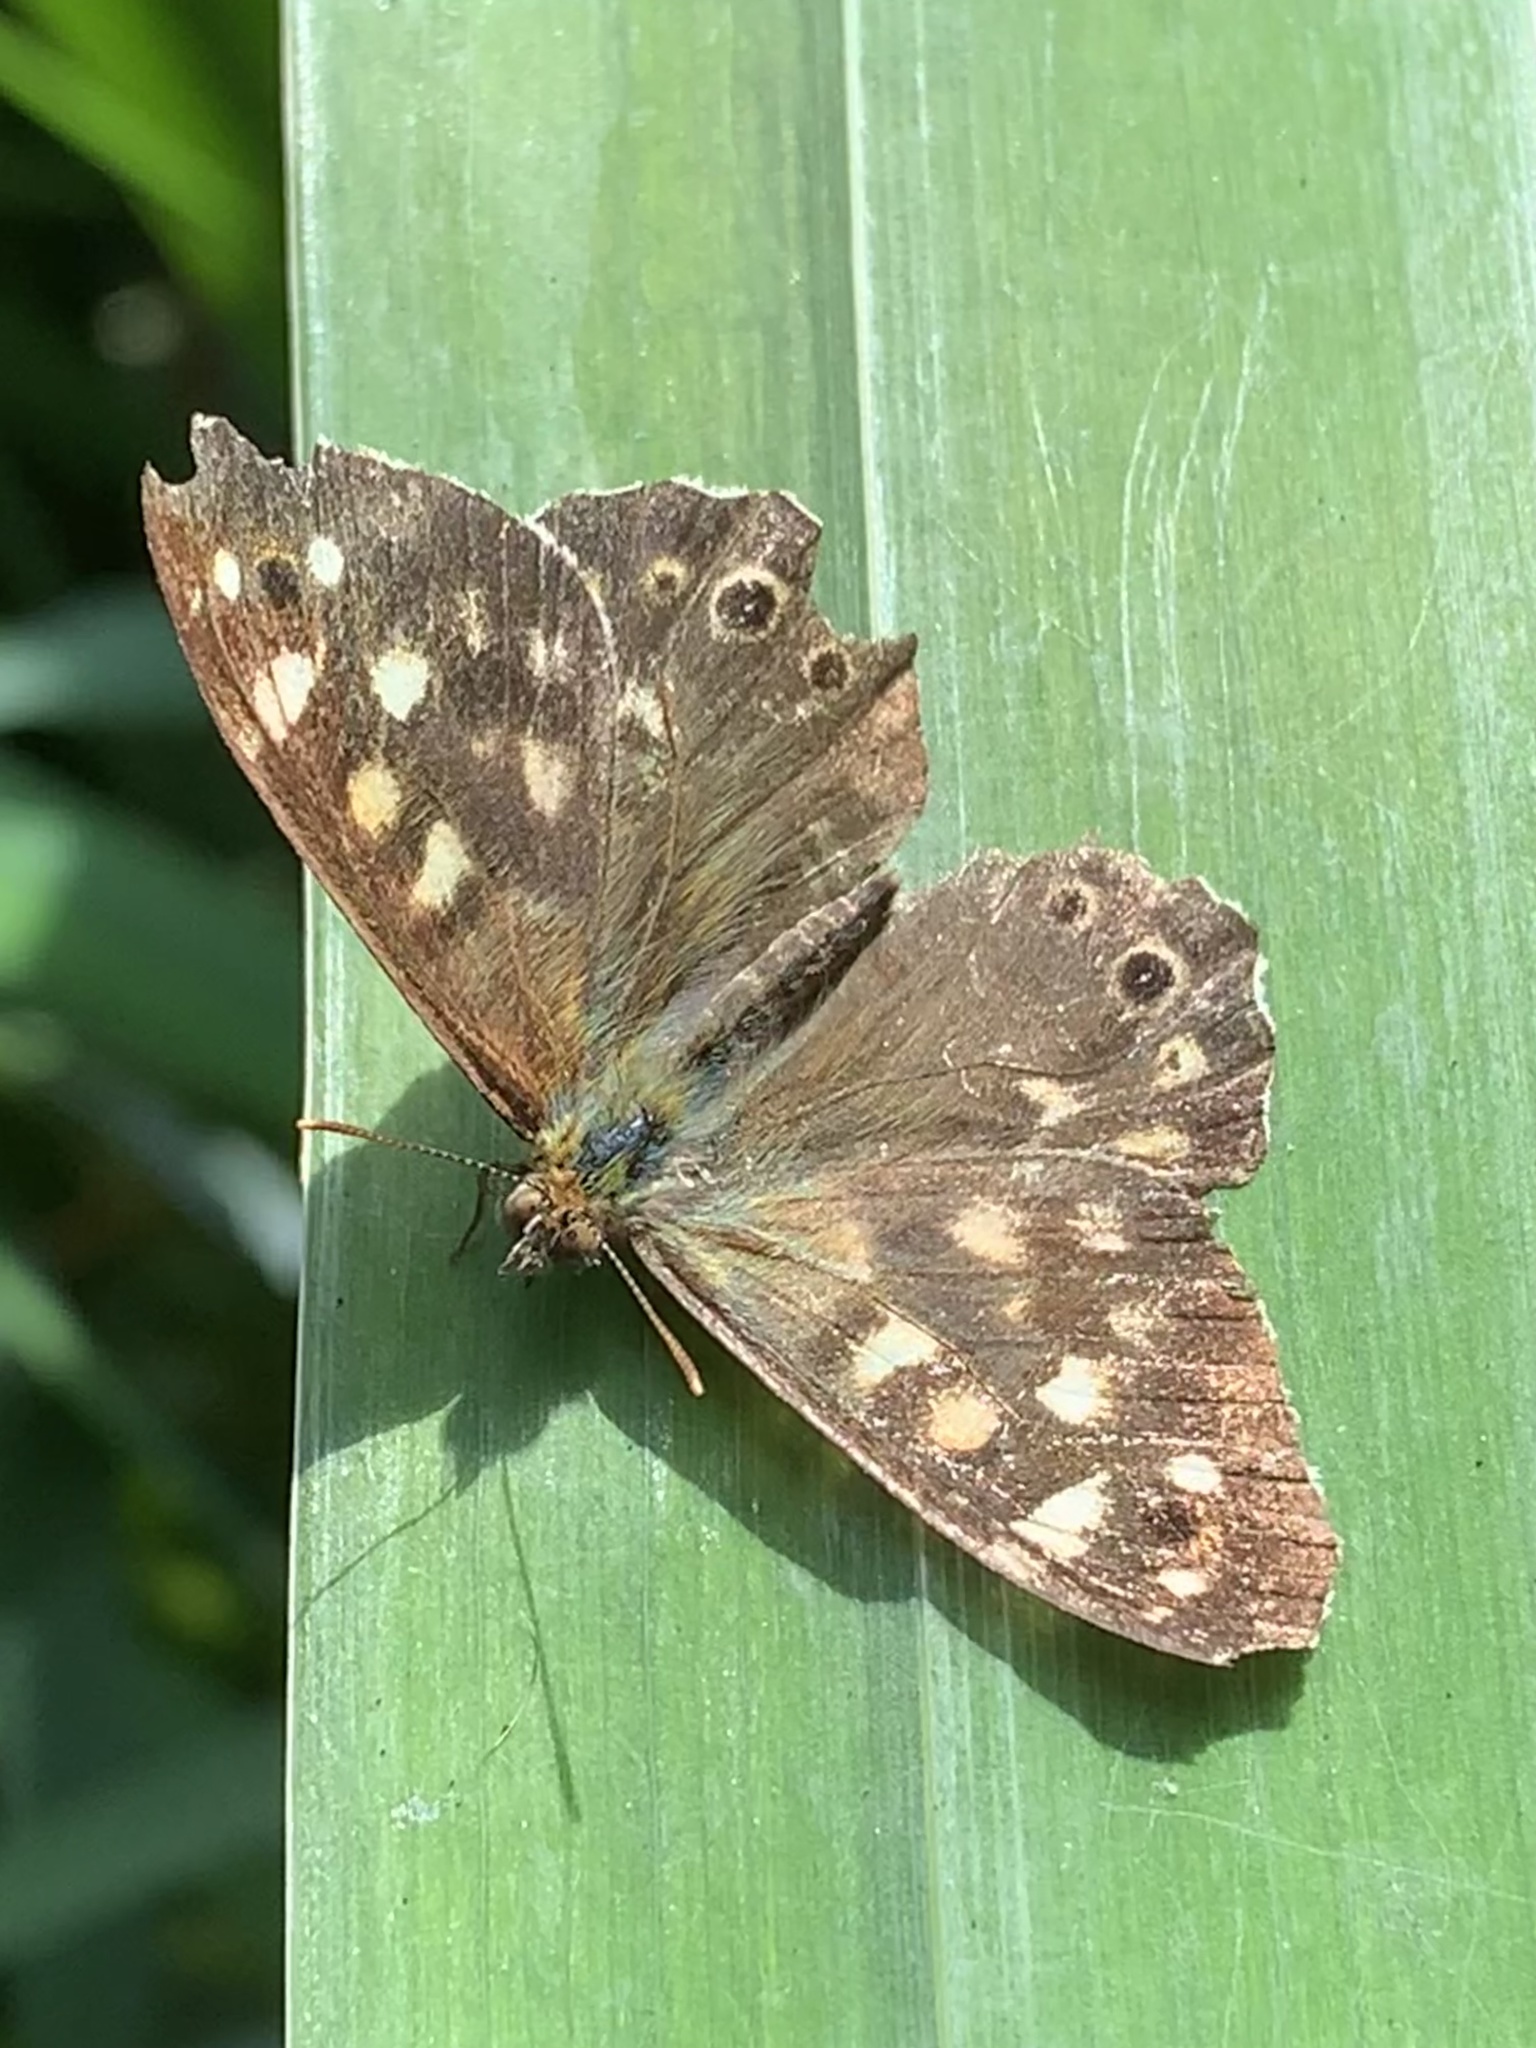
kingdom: Animalia
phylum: Arthropoda
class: Insecta
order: Lepidoptera
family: Nymphalidae
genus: Pararge
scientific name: Pararge aegeria
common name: Speckled wood
